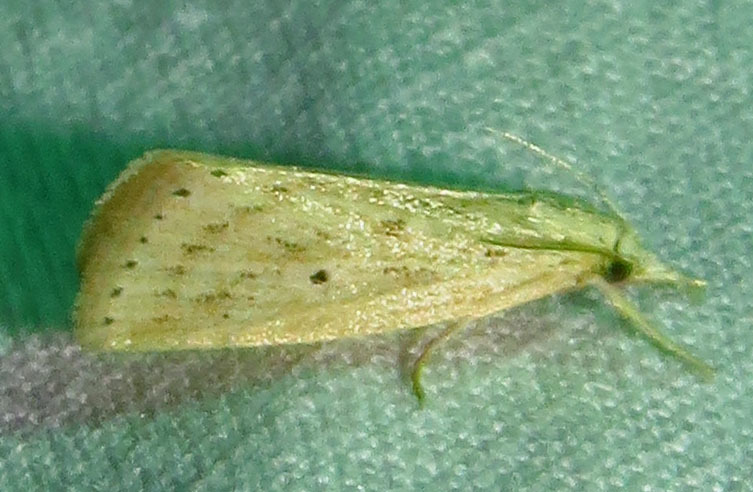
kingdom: Animalia
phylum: Arthropoda
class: Insecta
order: Lepidoptera
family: Crambidae
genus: Diatraea
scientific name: Diatraea lisetta
